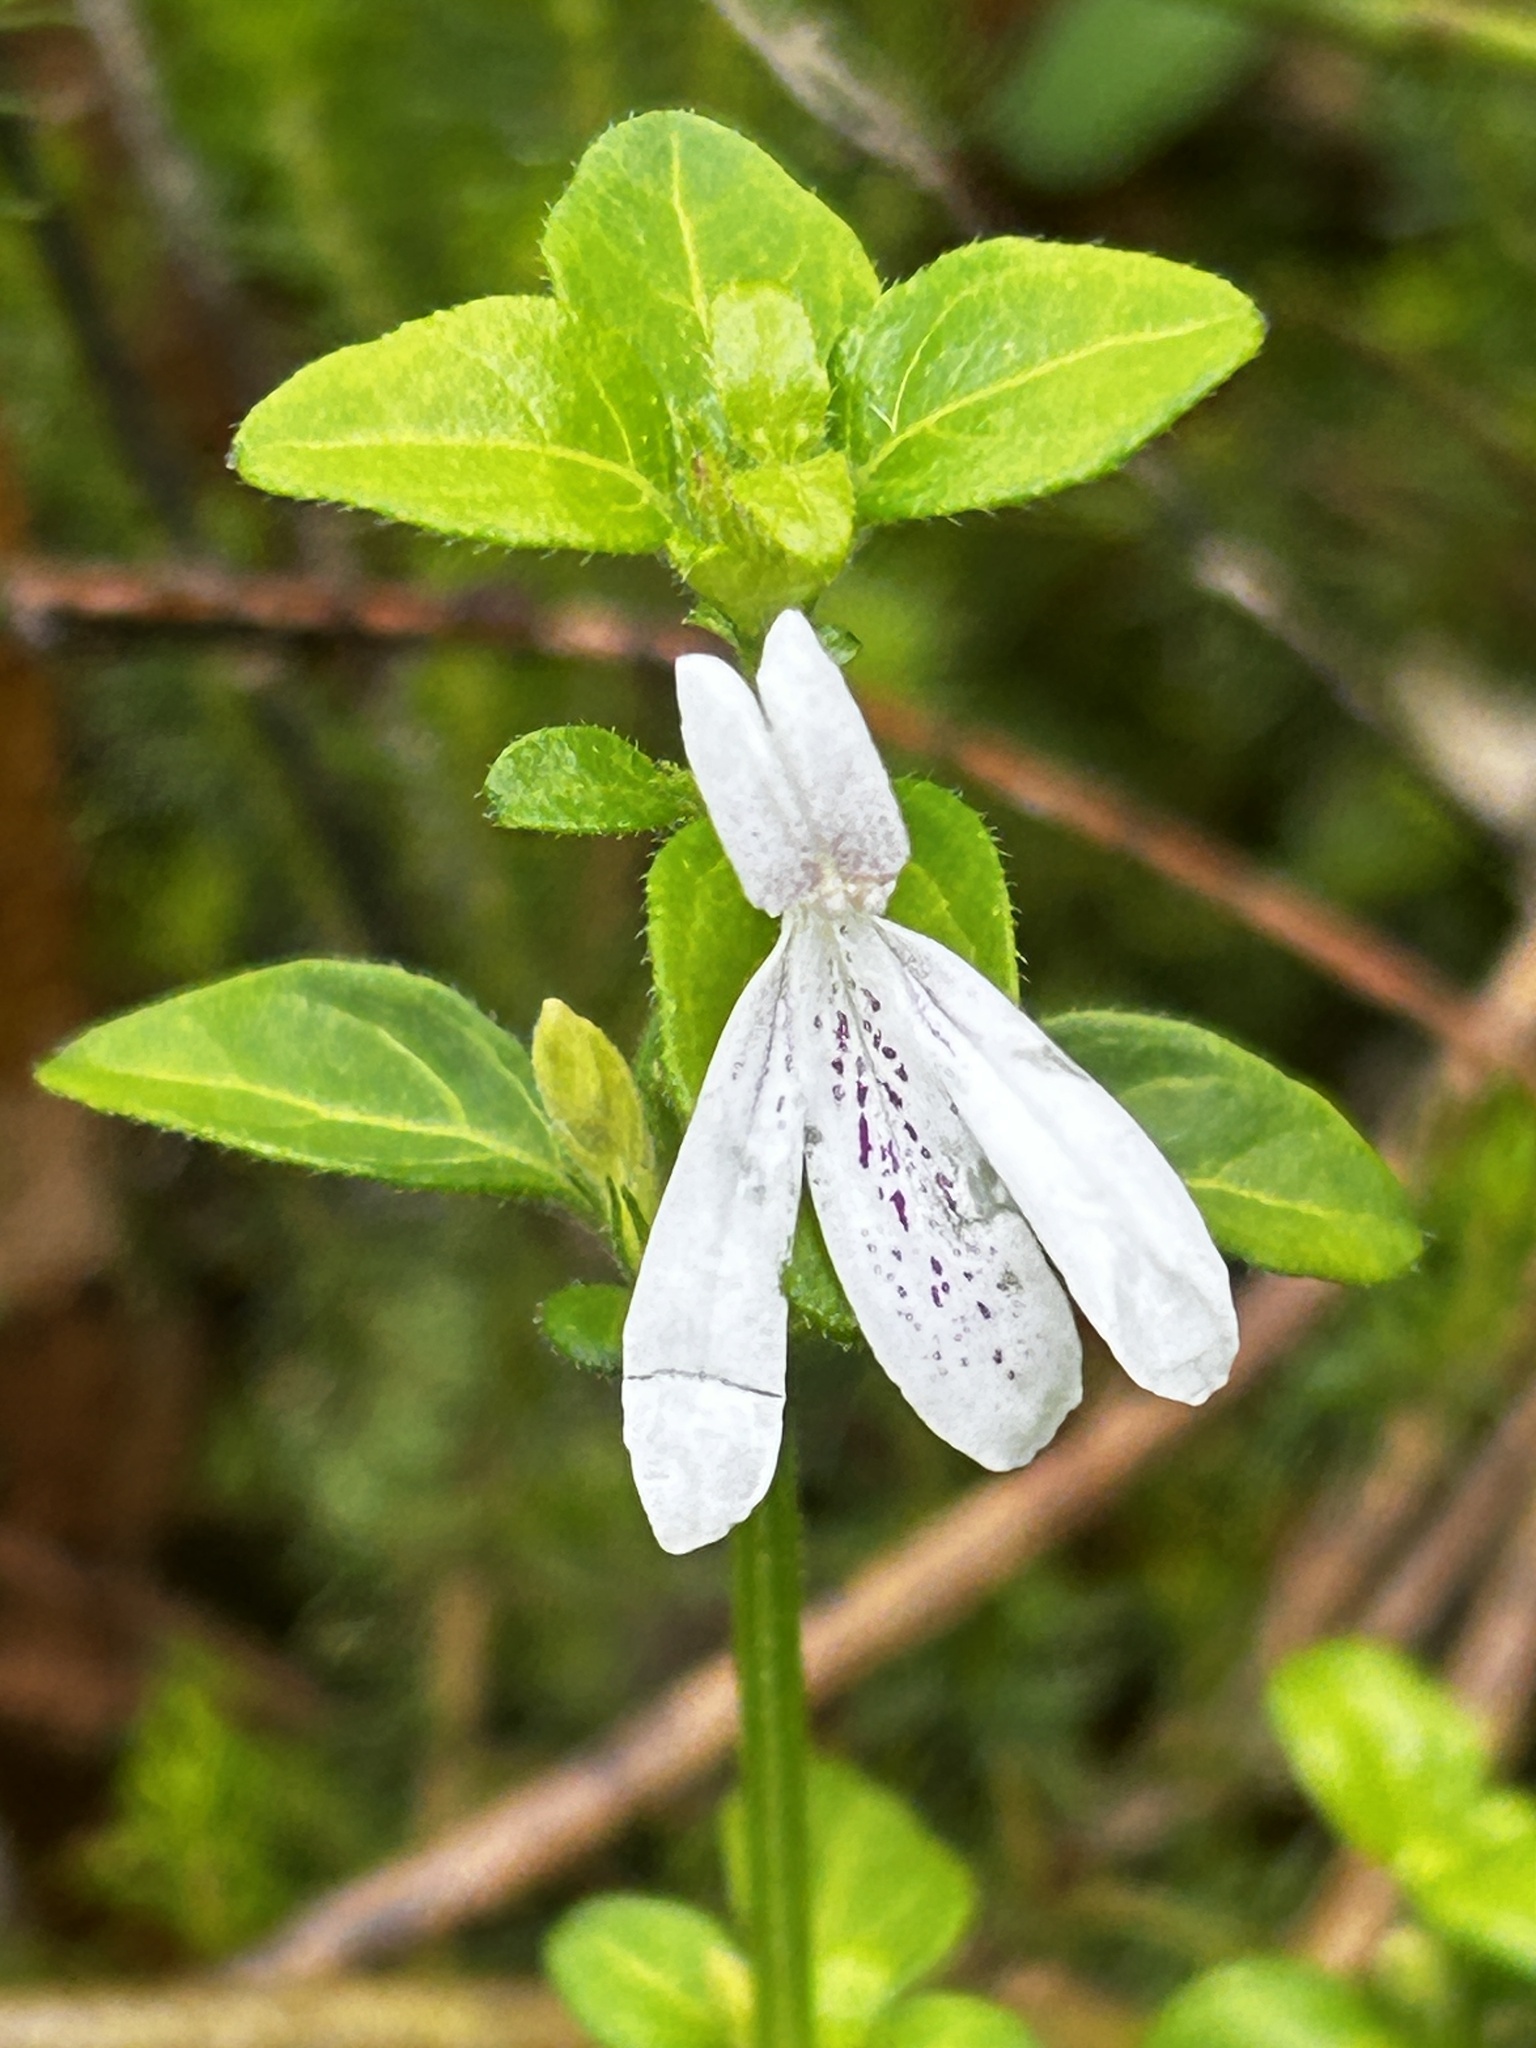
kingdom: Plantae
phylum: Tracheophyta
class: Magnoliopsida
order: Lamiales
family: Acanthaceae
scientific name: Acanthaceae
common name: Acanthaceae
